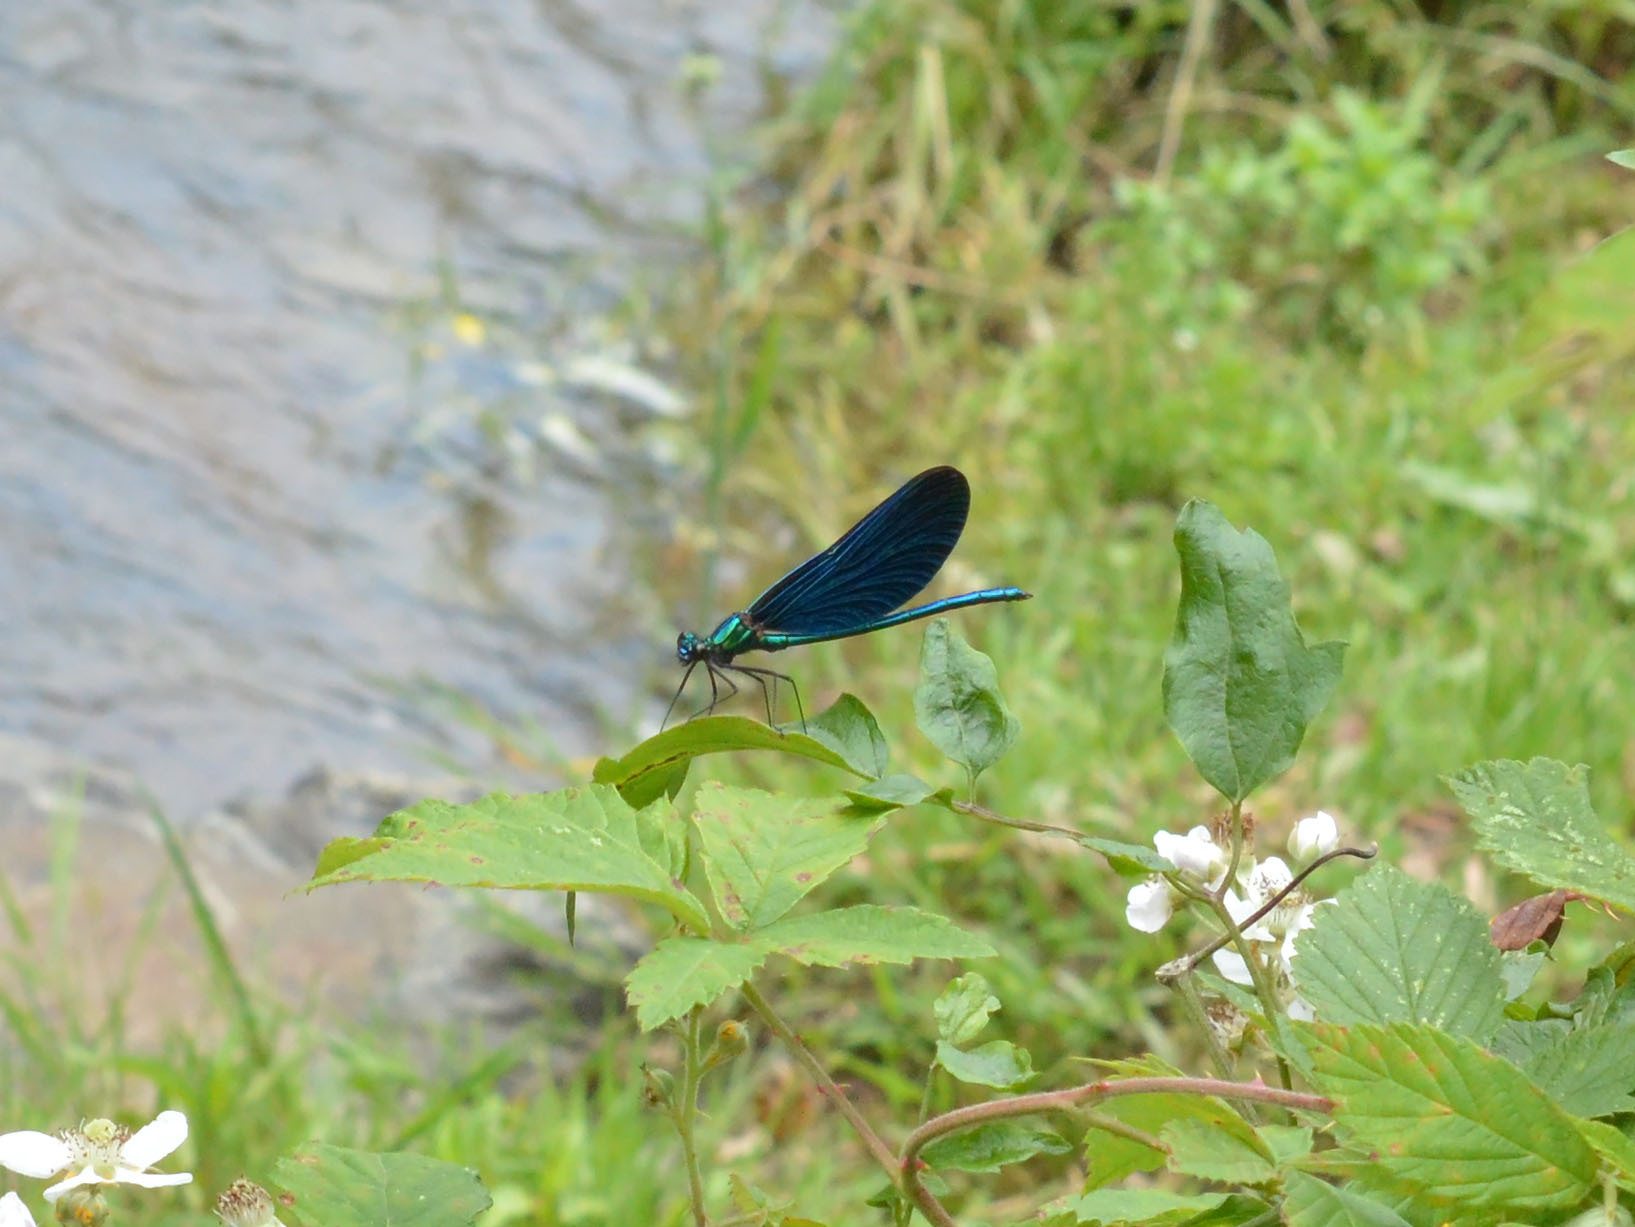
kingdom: Animalia
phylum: Arthropoda
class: Insecta
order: Odonata
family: Calopterygidae
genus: Calopteryx
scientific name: Calopteryx virgo
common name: Beautiful demoiselle
